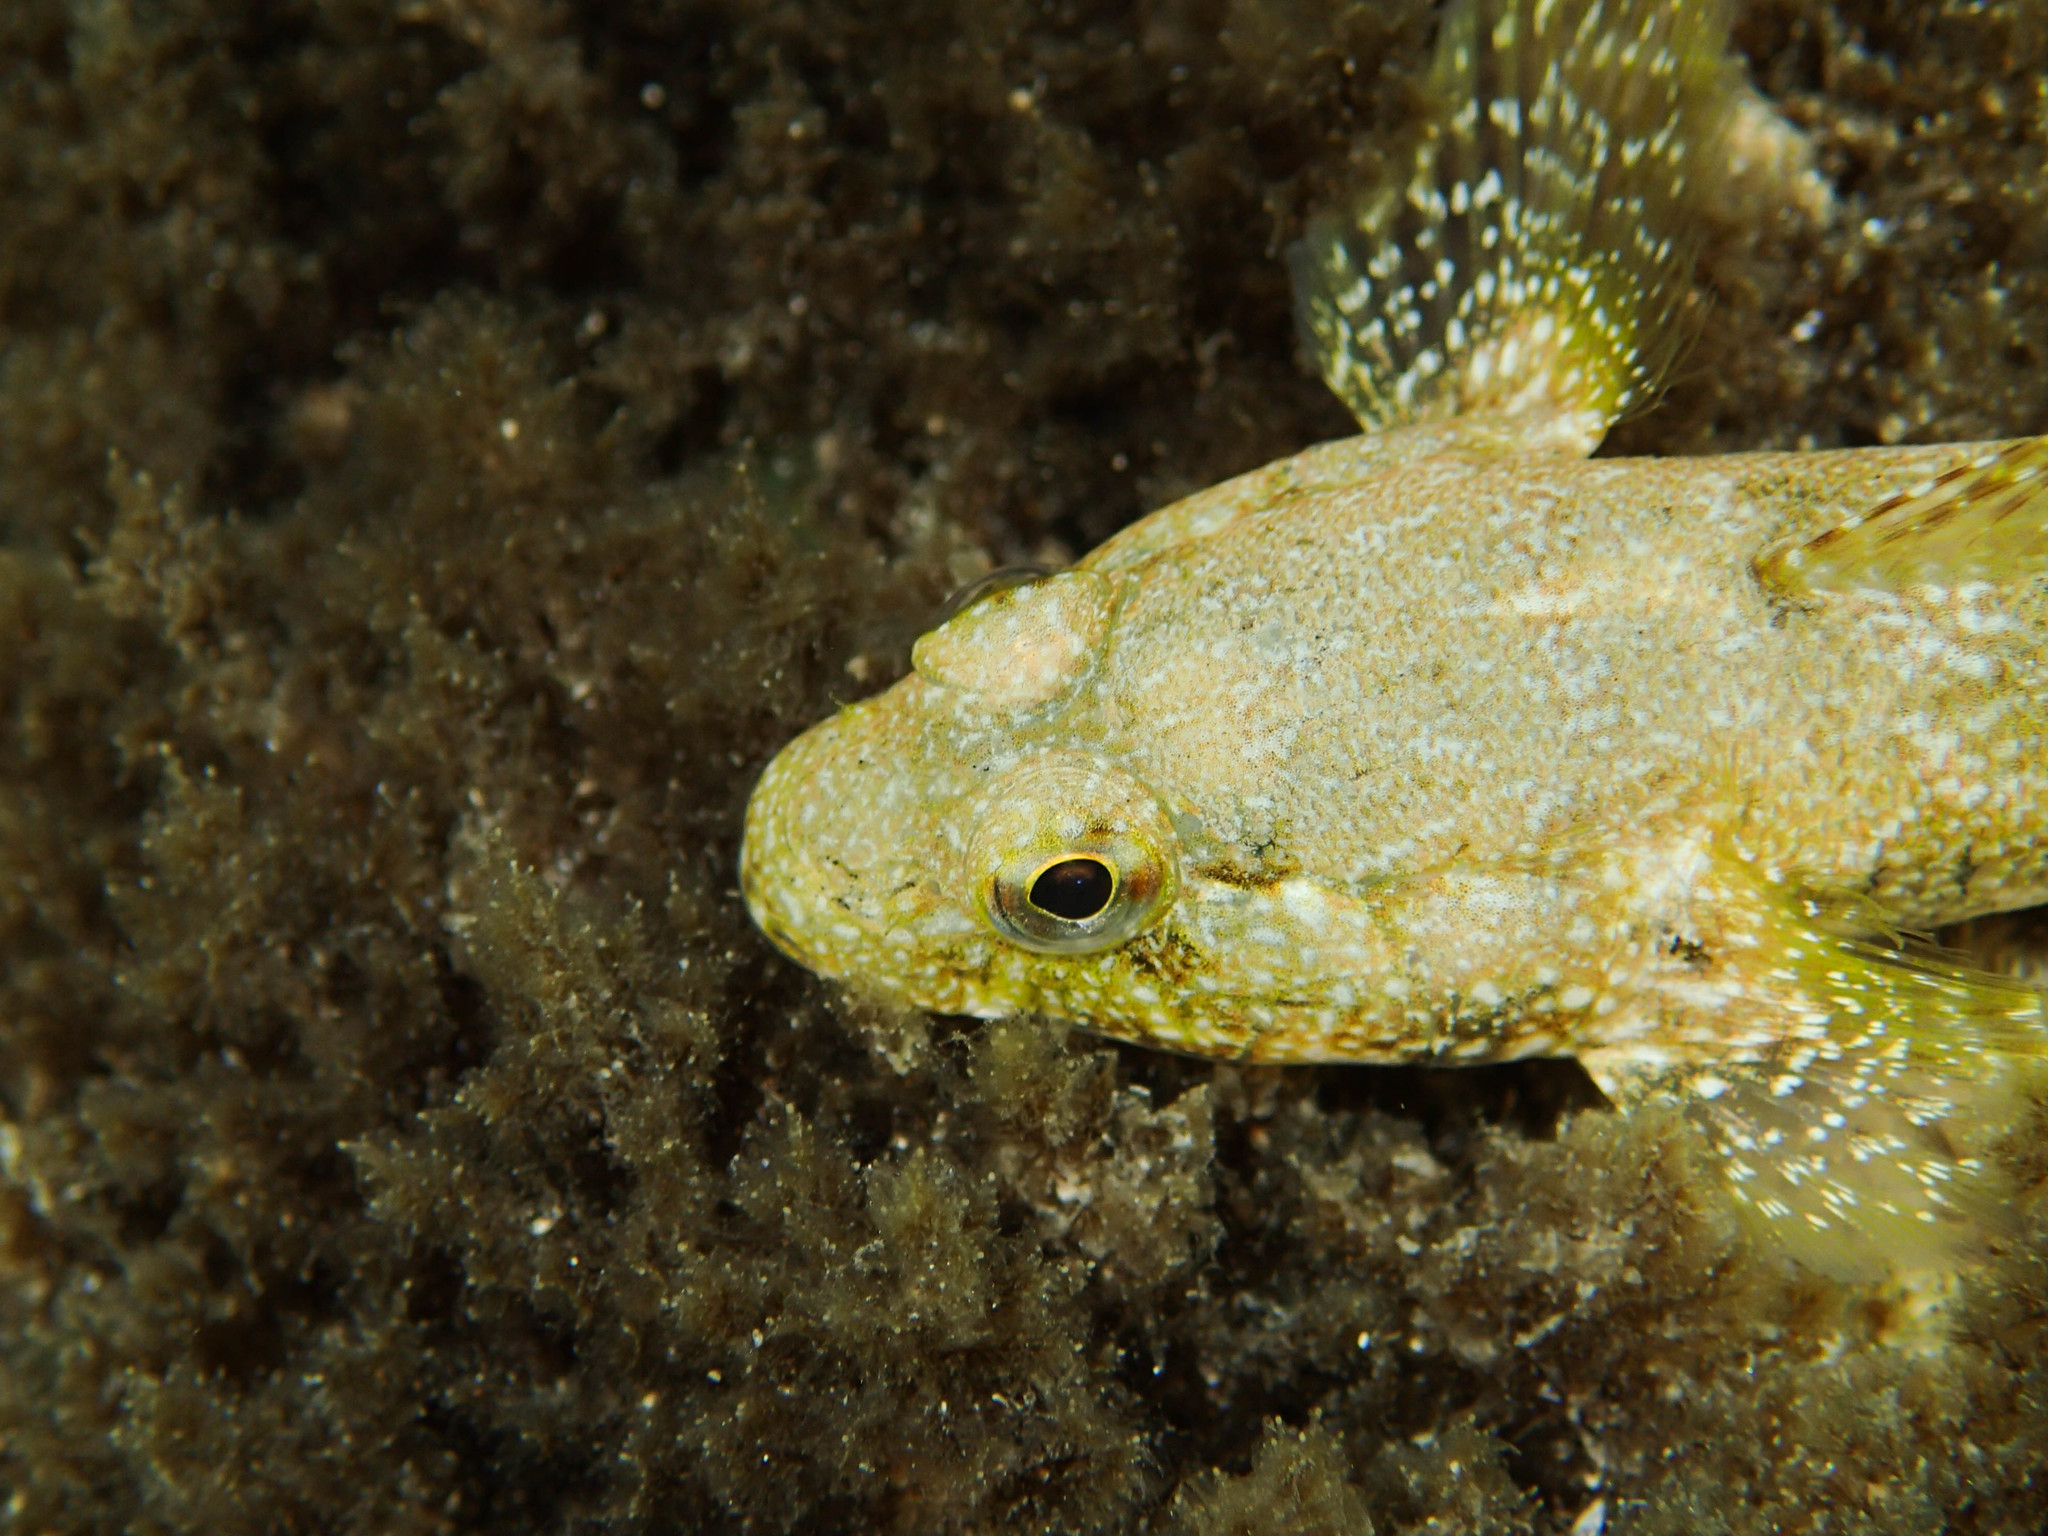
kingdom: Animalia
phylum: Chordata
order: Perciformes
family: Gobiidae
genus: Gobius
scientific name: Gobius cobitis
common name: Giant goby
